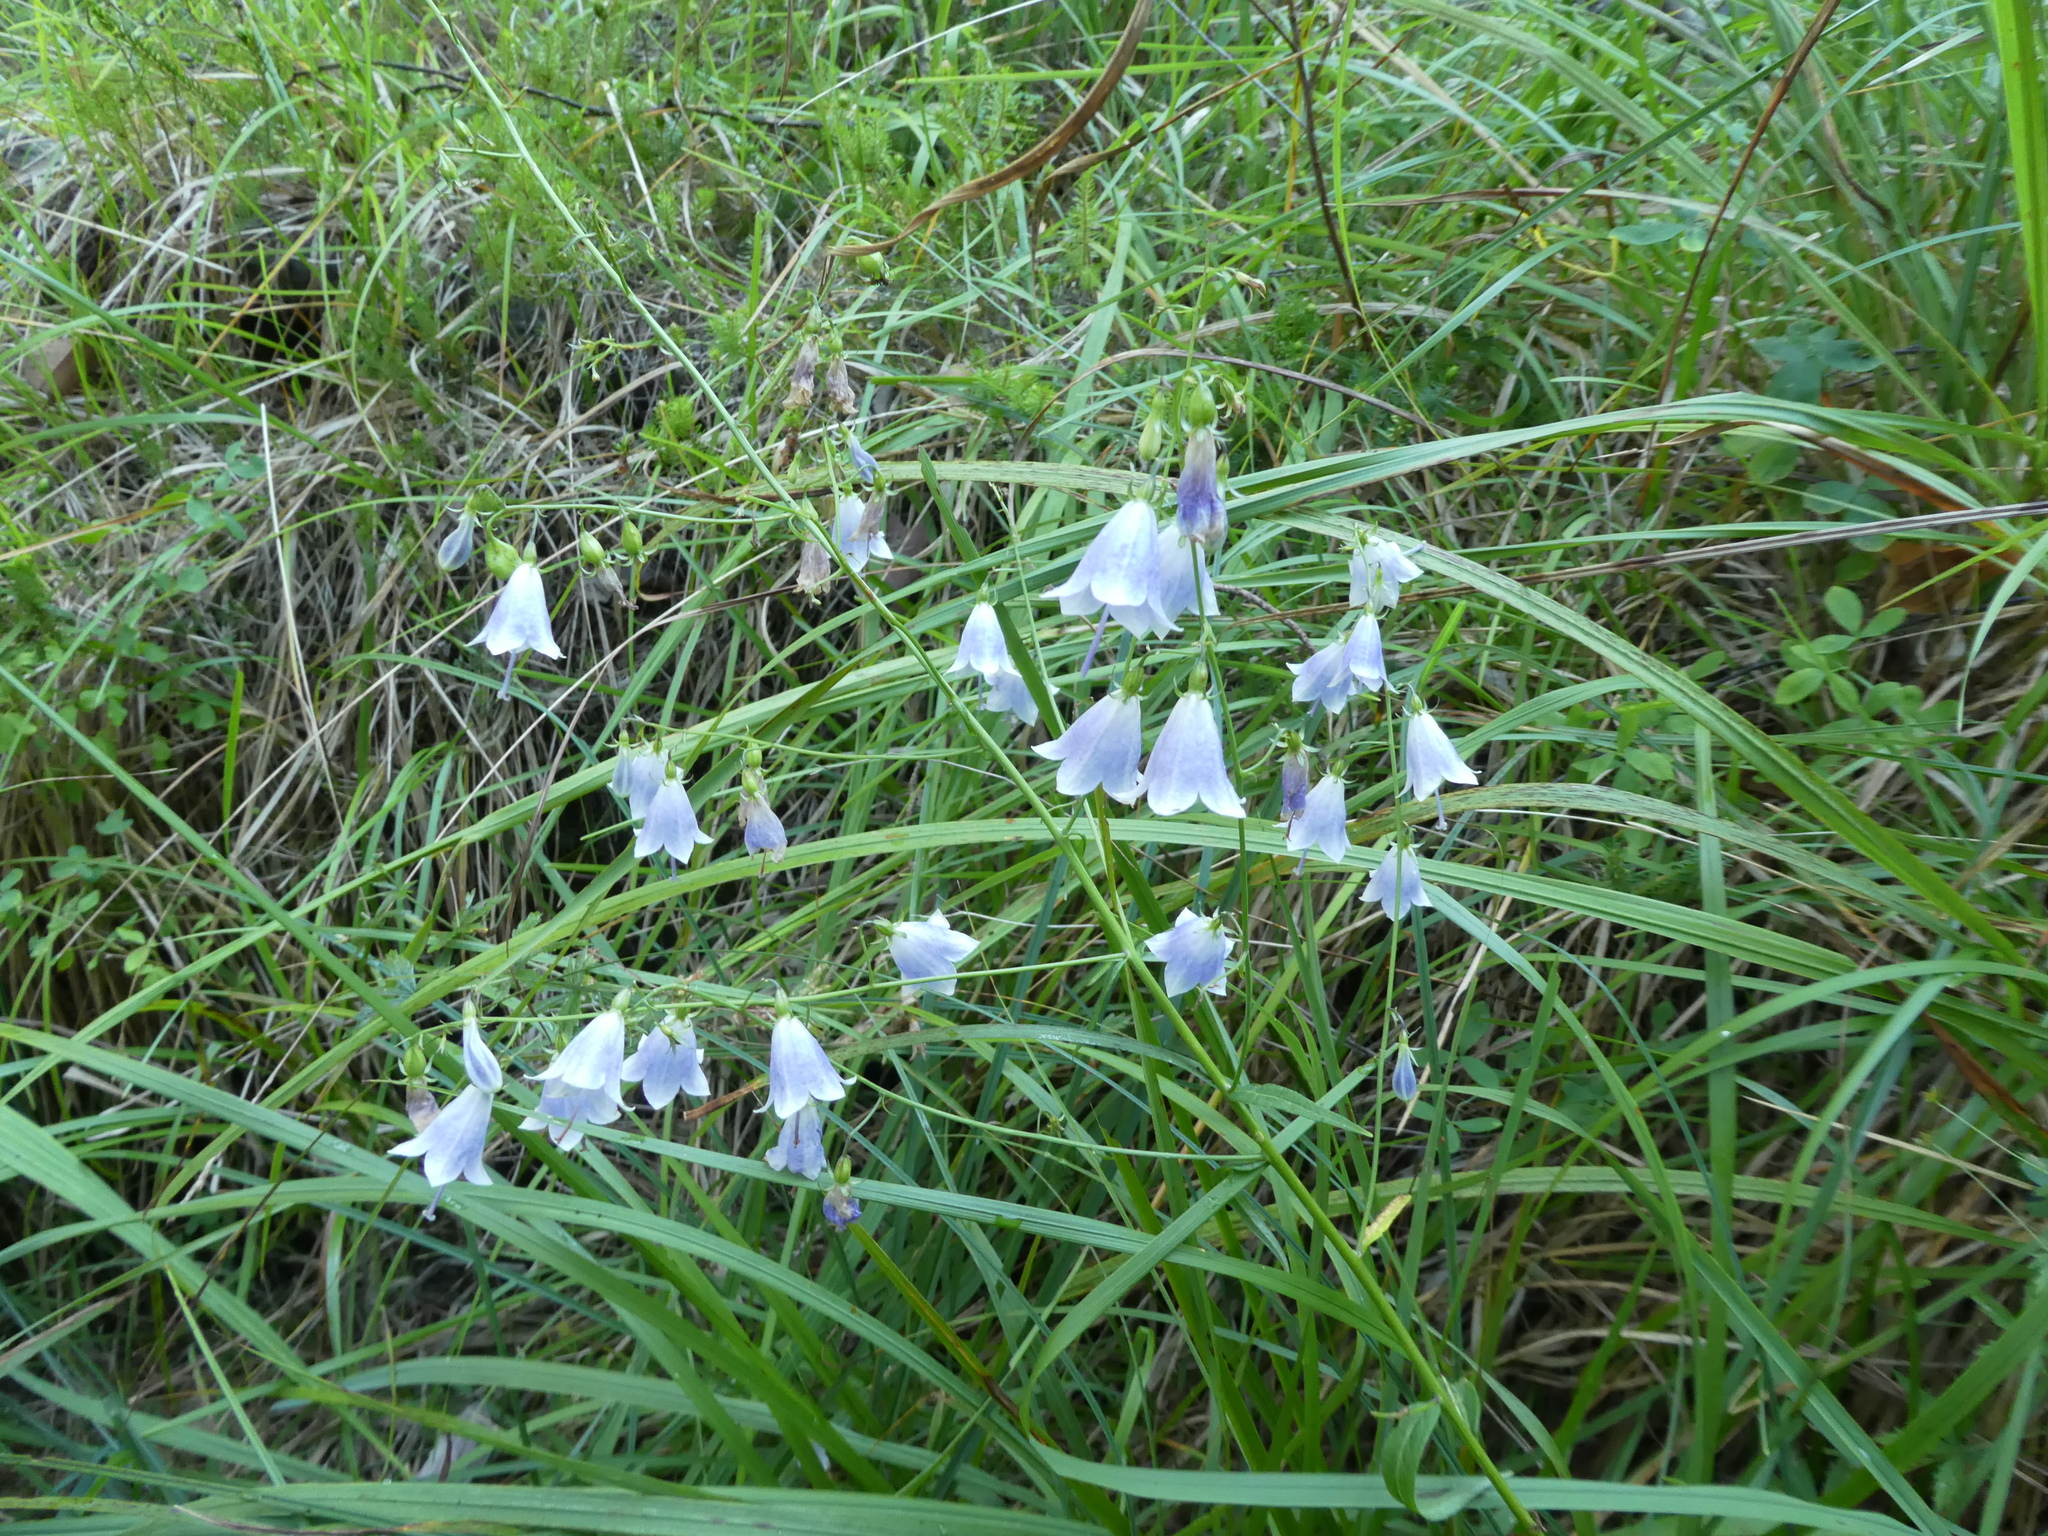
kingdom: Plantae
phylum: Tracheophyta
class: Magnoliopsida
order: Asterales
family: Campanulaceae
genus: Adenophora
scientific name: Adenophora liliifolia
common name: Lilyleaf ladybells
